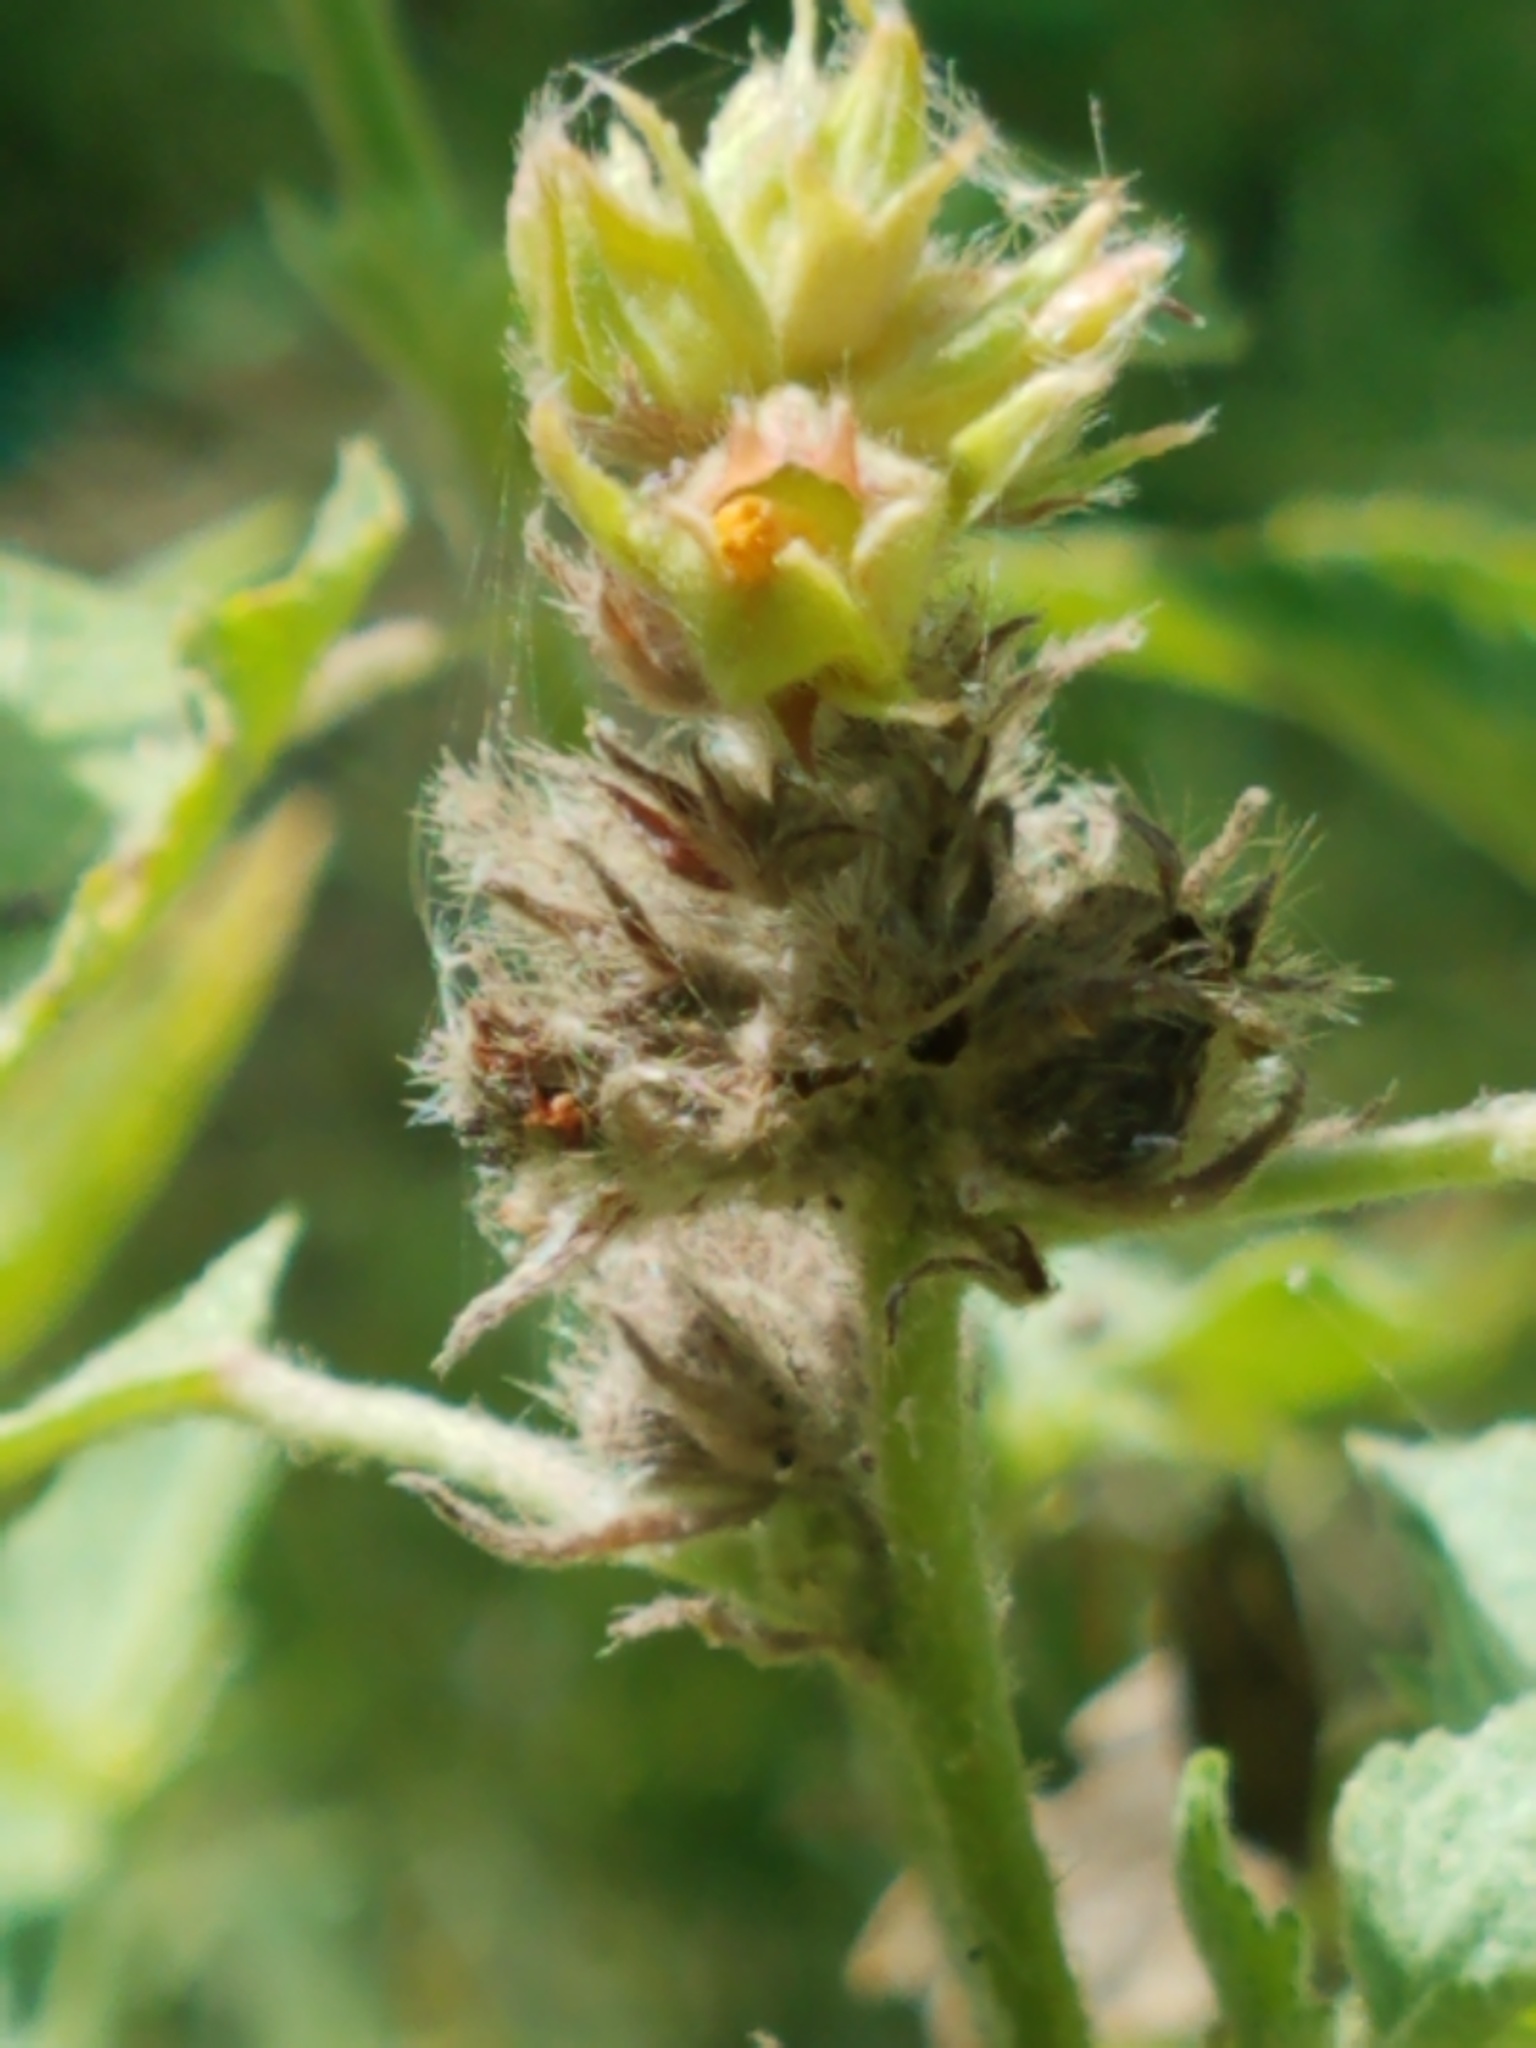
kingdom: Plantae
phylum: Tracheophyta
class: Magnoliopsida
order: Malvales
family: Malvaceae
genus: Malvastrum
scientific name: Malvastrum americanum
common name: Spiked malvastrum
